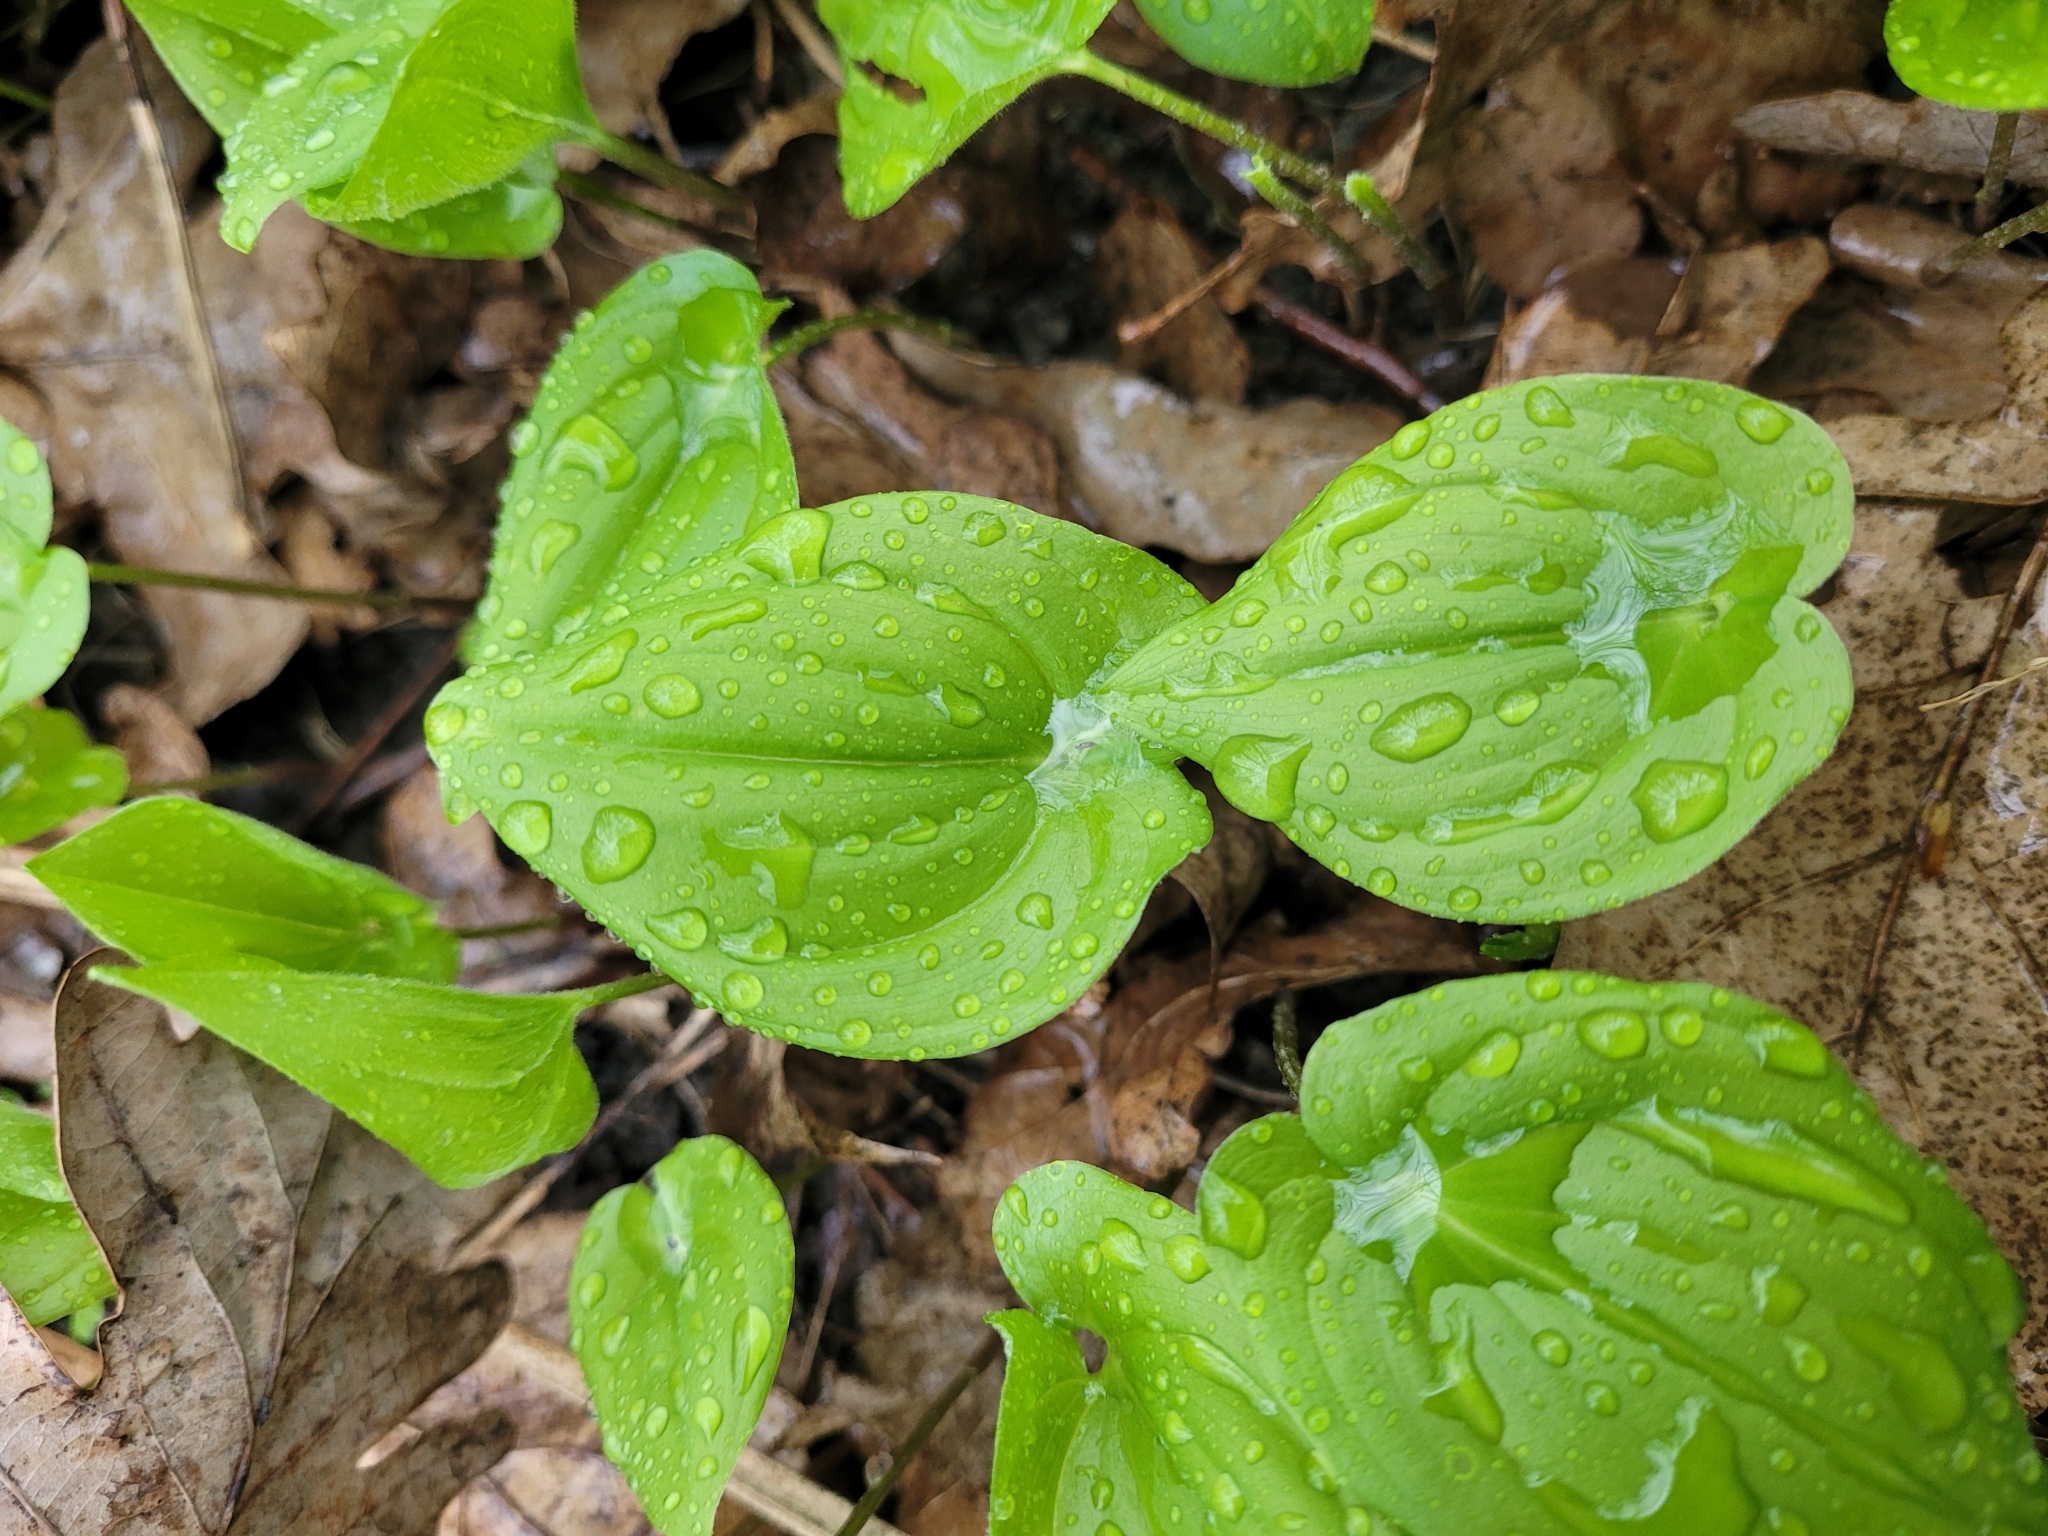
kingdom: Plantae
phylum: Tracheophyta
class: Liliopsida
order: Asparagales
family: Asparagaceae
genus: Maianthemum
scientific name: Maianthemum bifolium
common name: May lily
